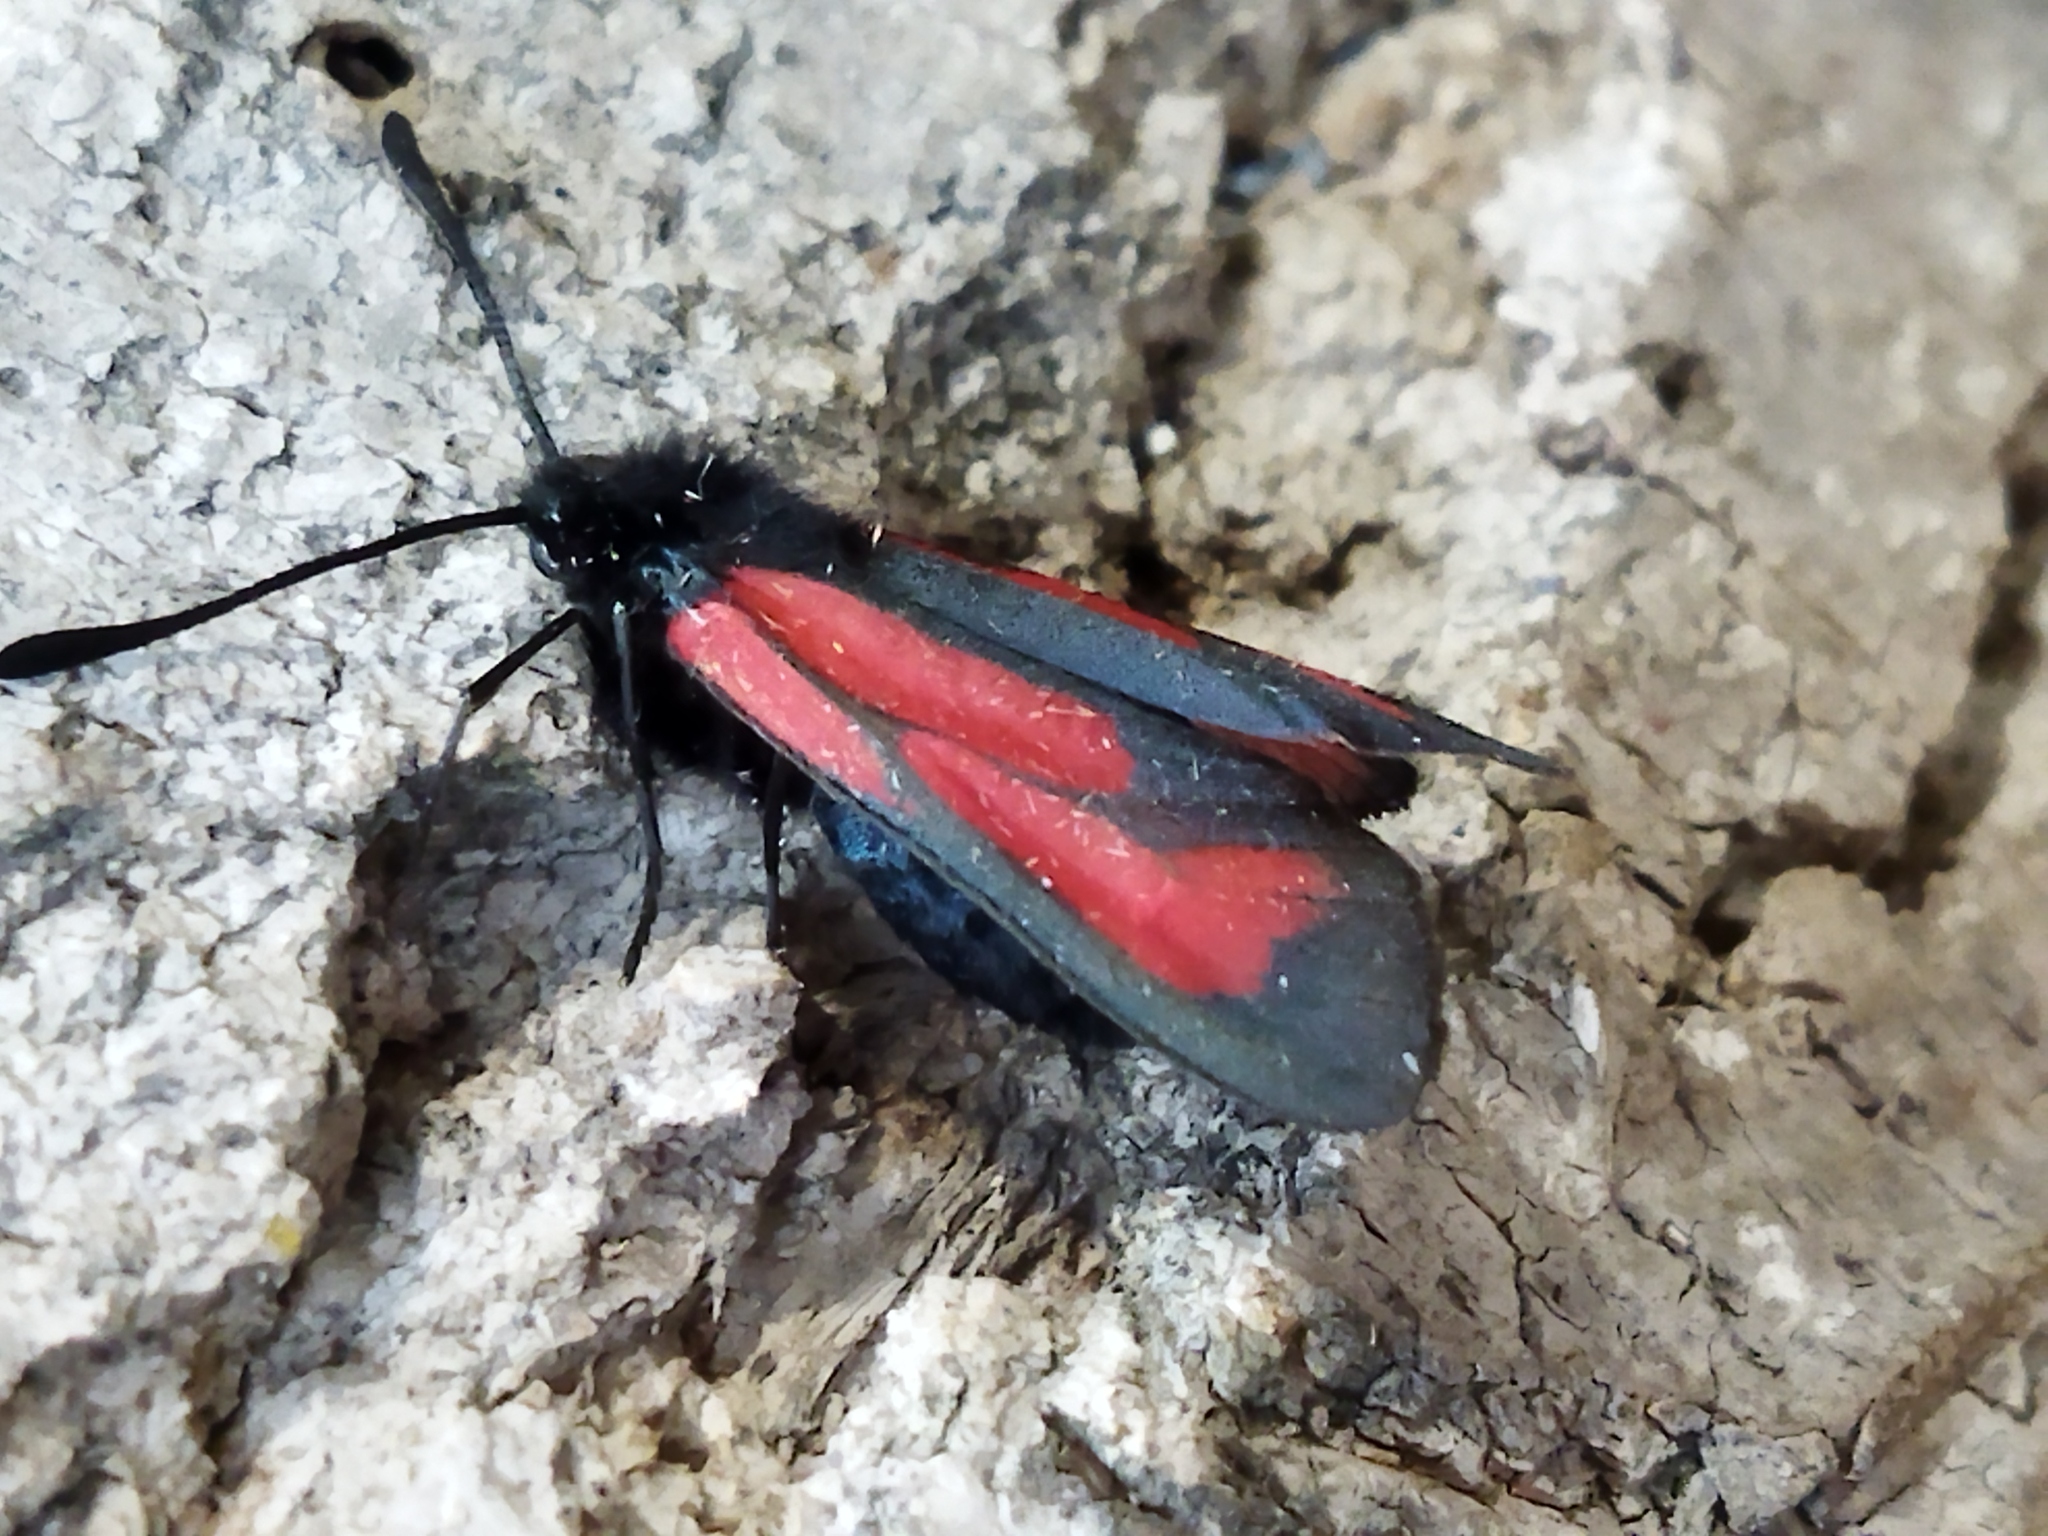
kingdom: Animalia
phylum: Arthropoda
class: Insecta
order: Lepidoptera
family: Zygaenidae
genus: Zygaena
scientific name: Zygaena
